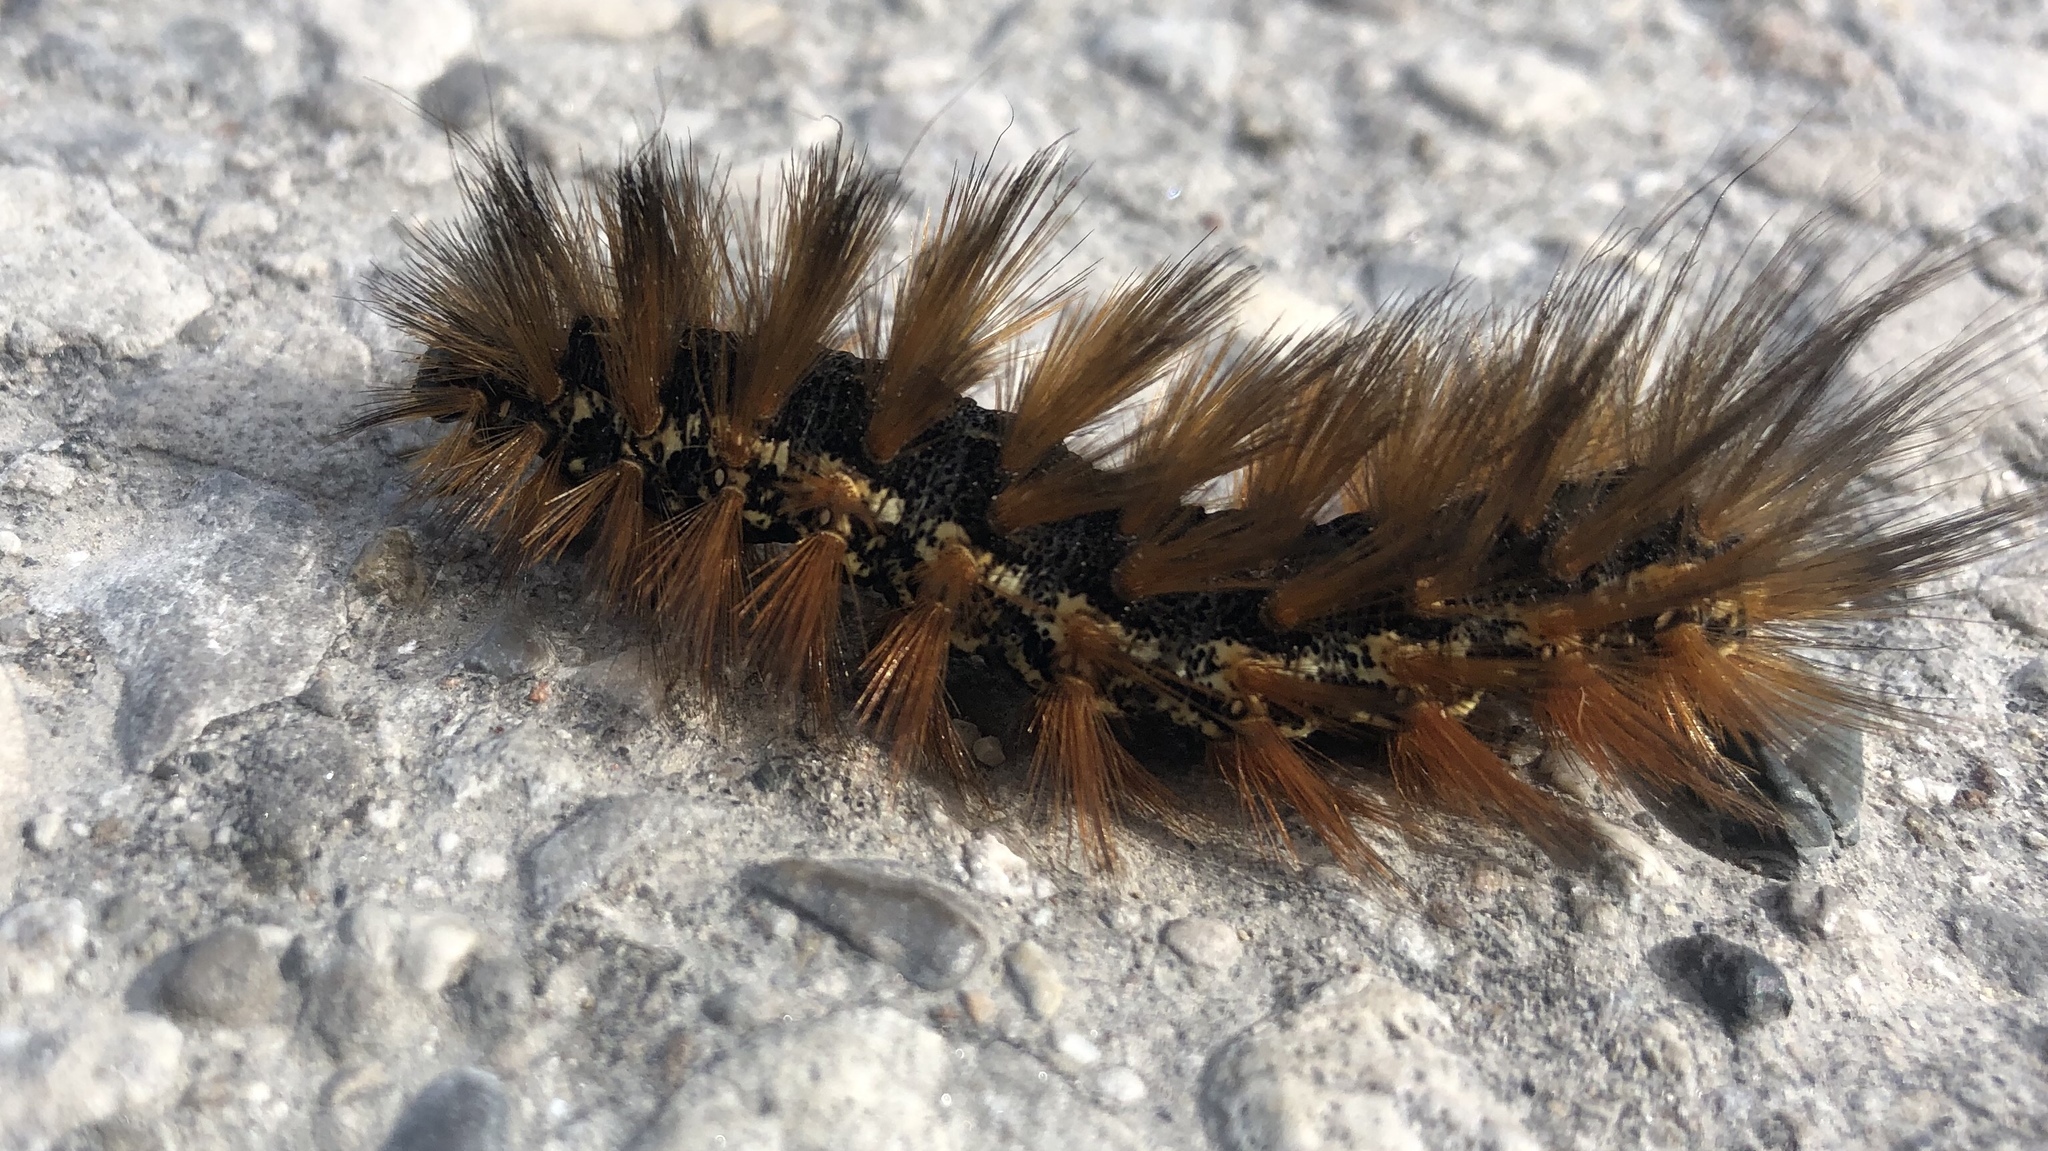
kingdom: Animalia
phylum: Arthropoda
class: Insecta
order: Lepidoptera
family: Erebidae
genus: Estigmene
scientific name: Estigmene acrea
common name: Salt marsh moth
